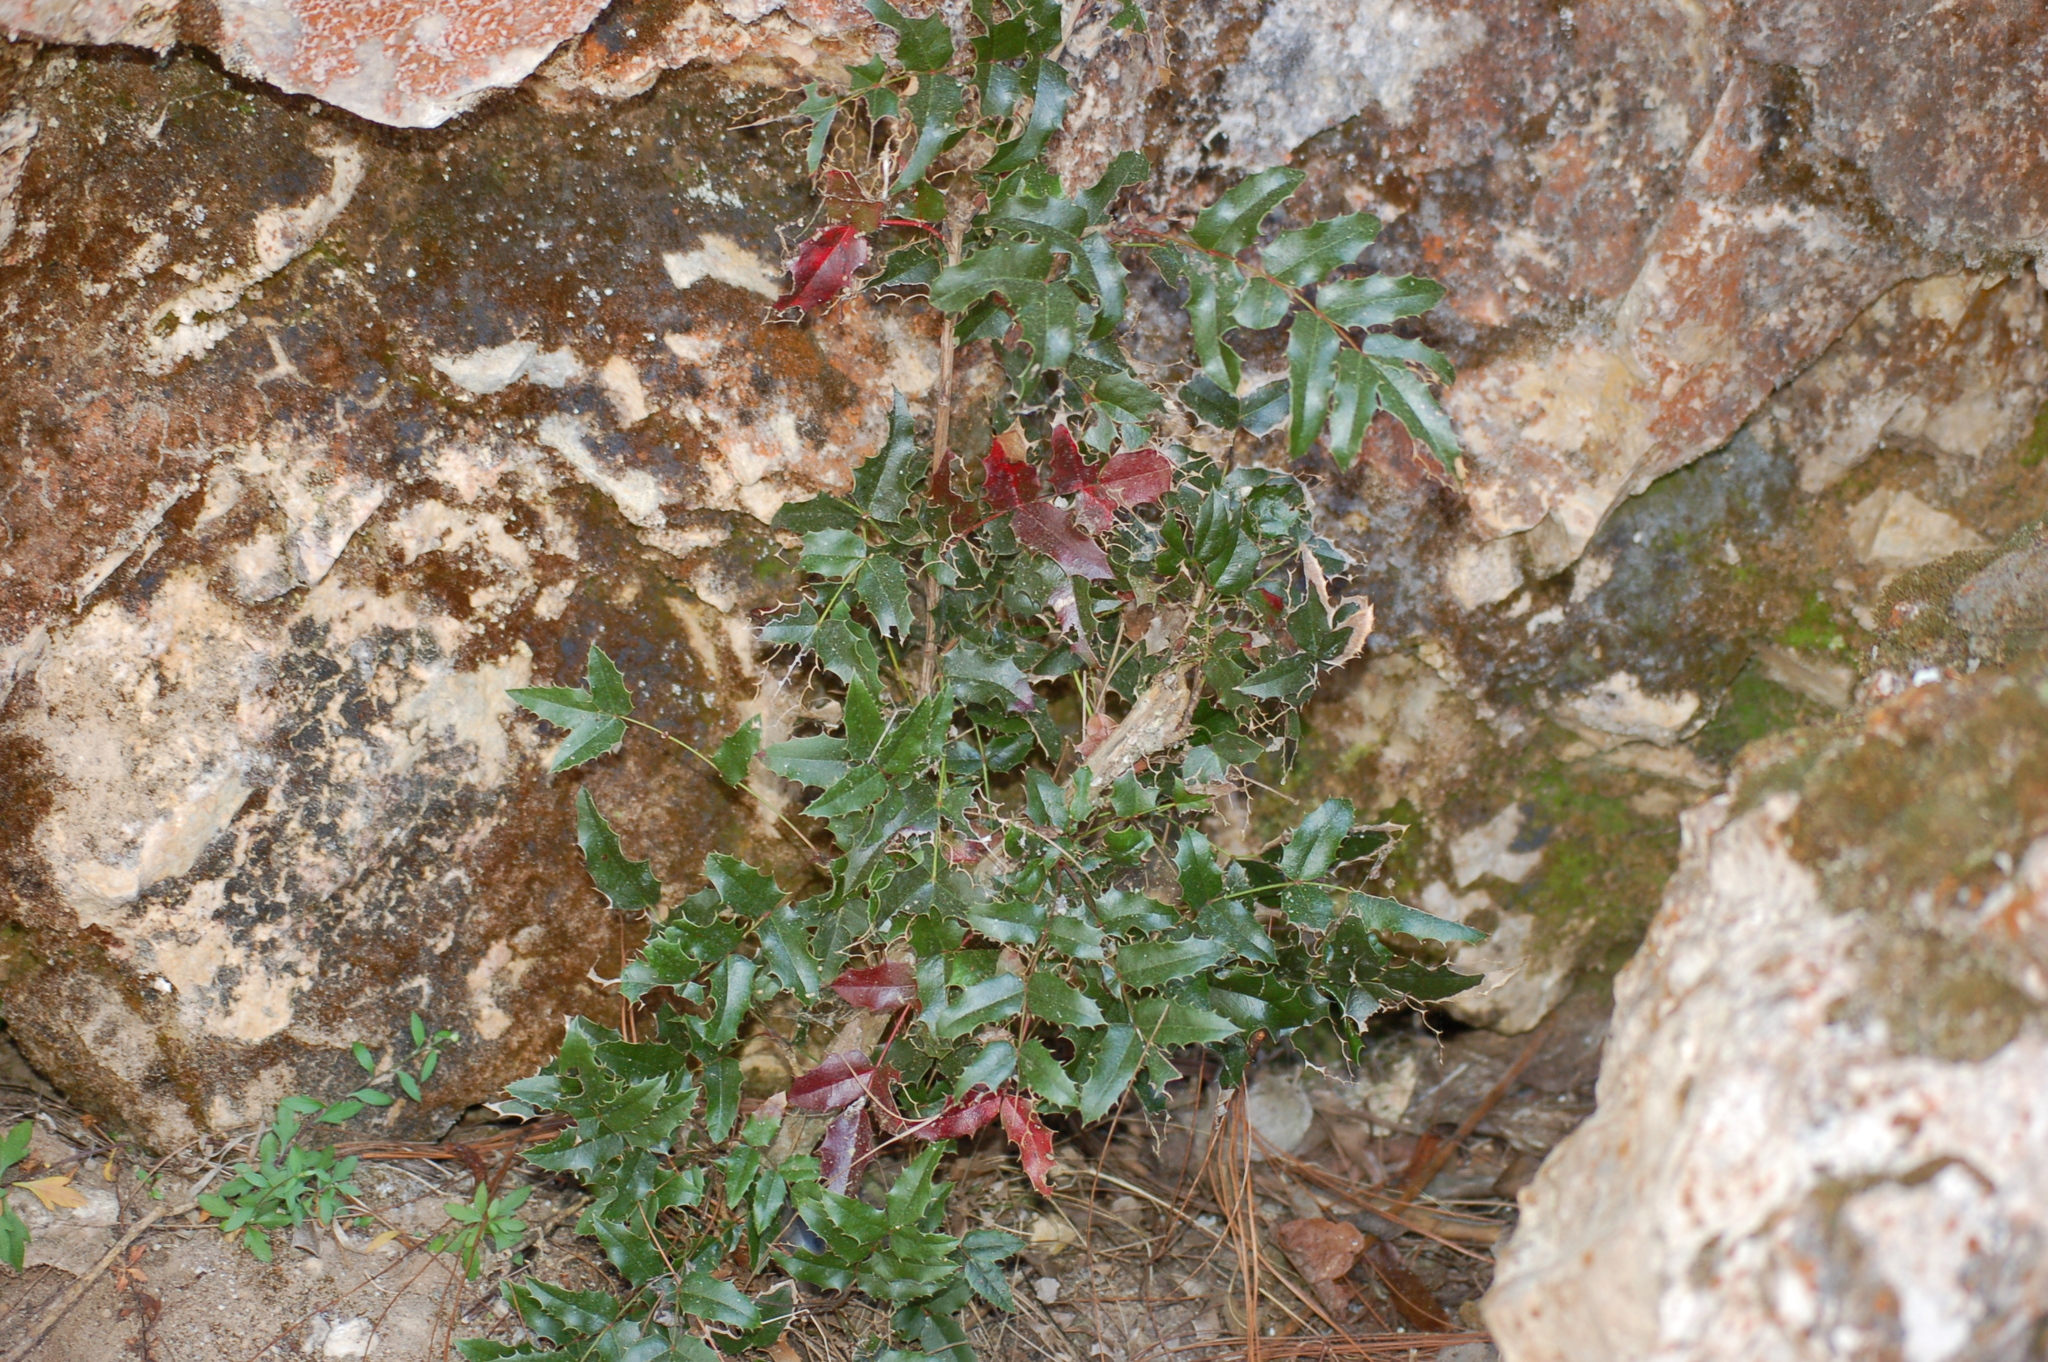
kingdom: Plantae
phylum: Tracheophyta
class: Magnoliopsida
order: Ranunculales
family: Berberidaceae
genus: Mahonia
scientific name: Mahonia volcania
